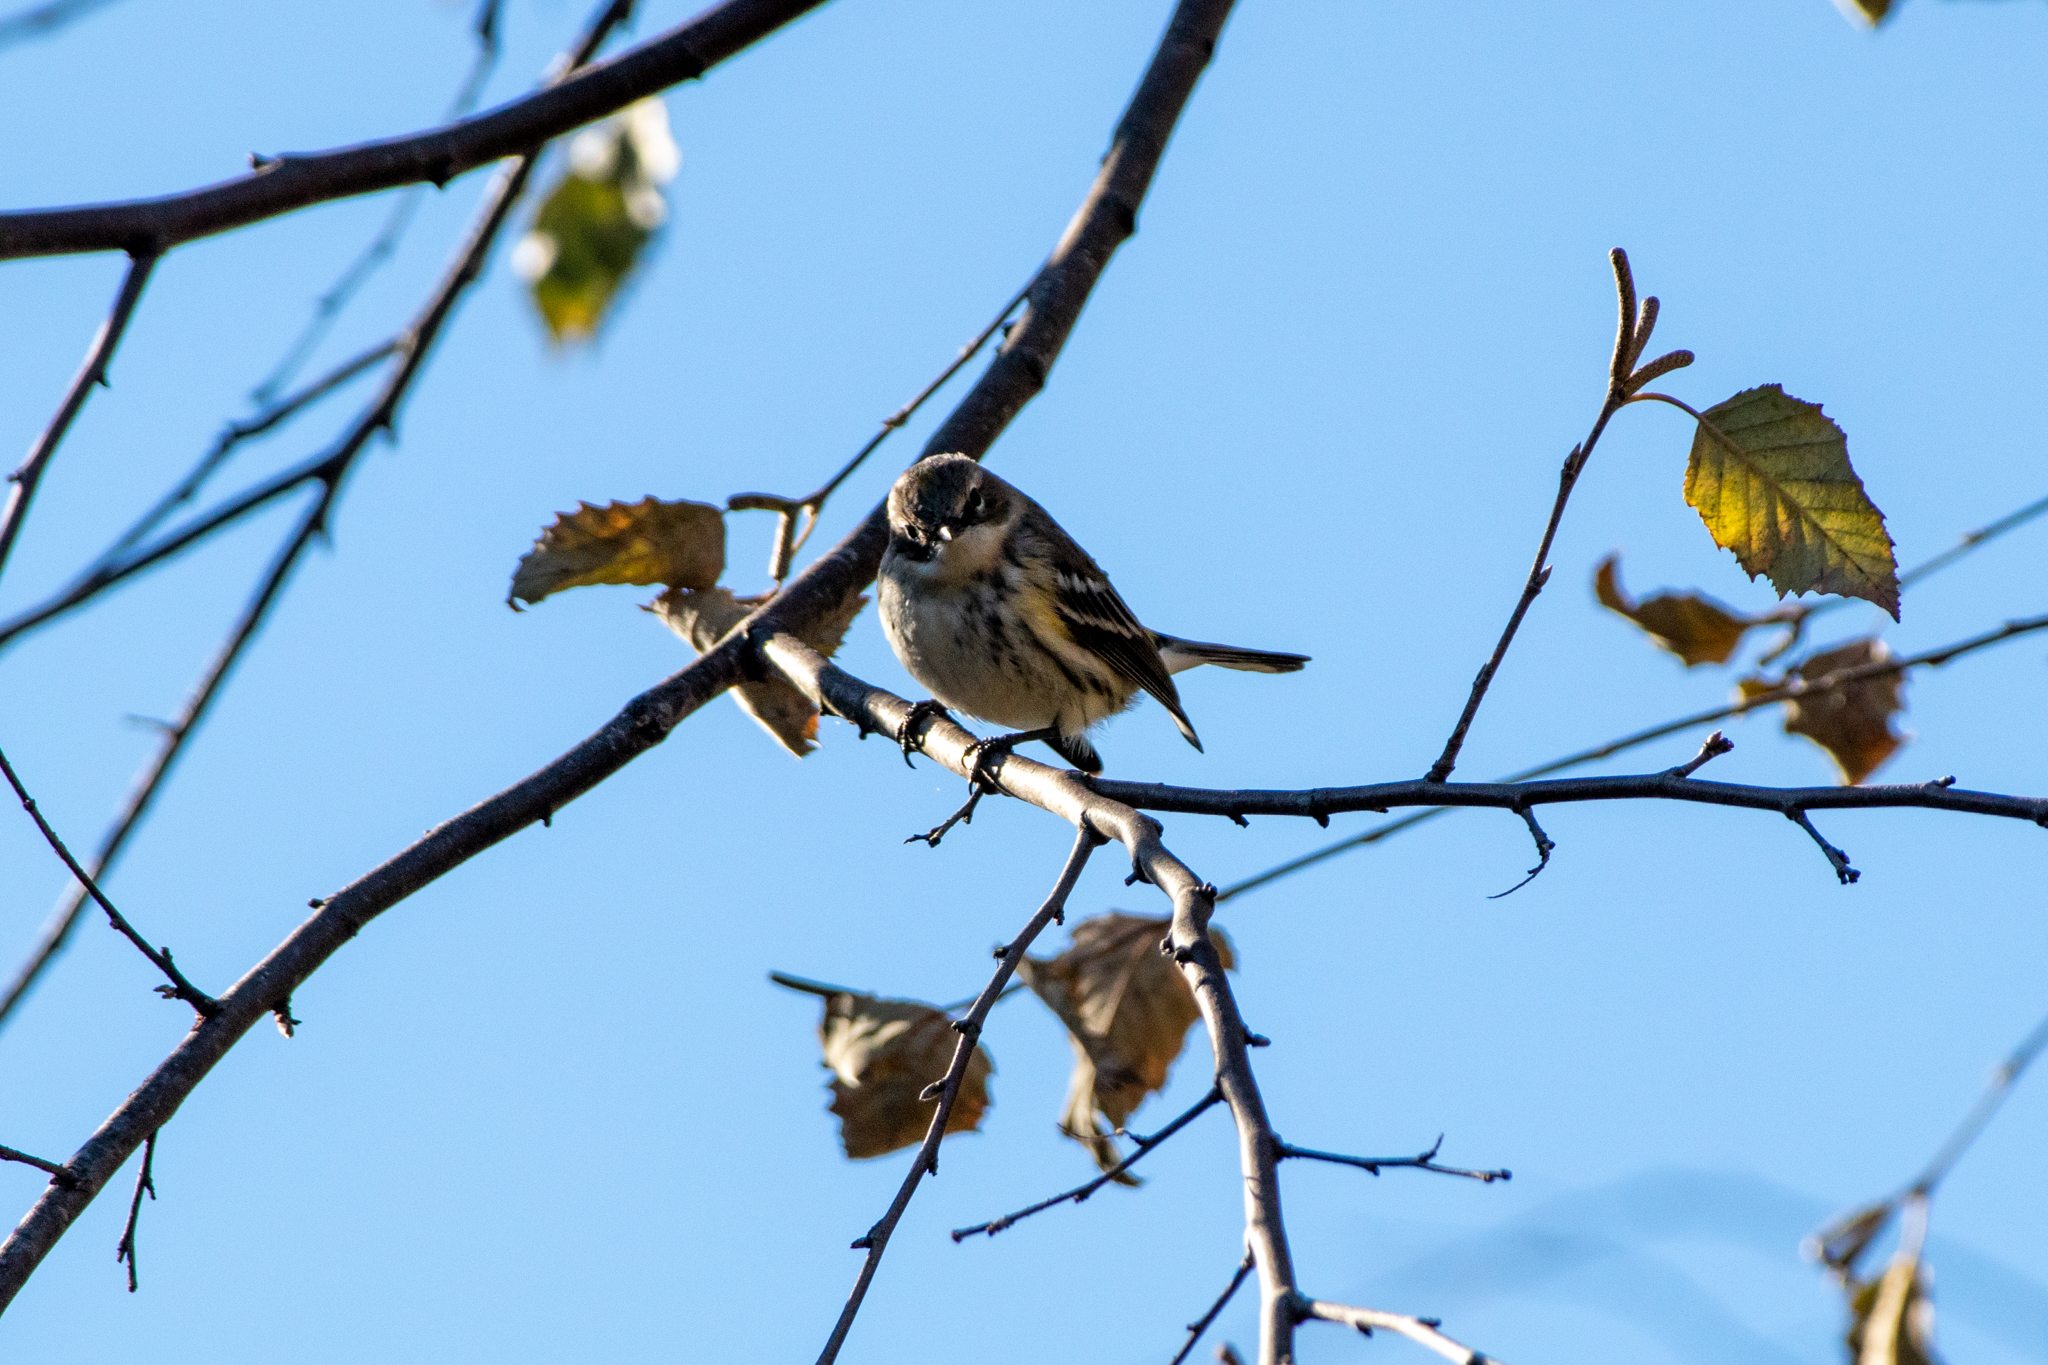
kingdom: Animalia
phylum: Chordata
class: Aves
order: Passeriformes
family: Parulidae
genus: Setophaga
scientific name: Setophaga coronata
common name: Myrtle warbler
